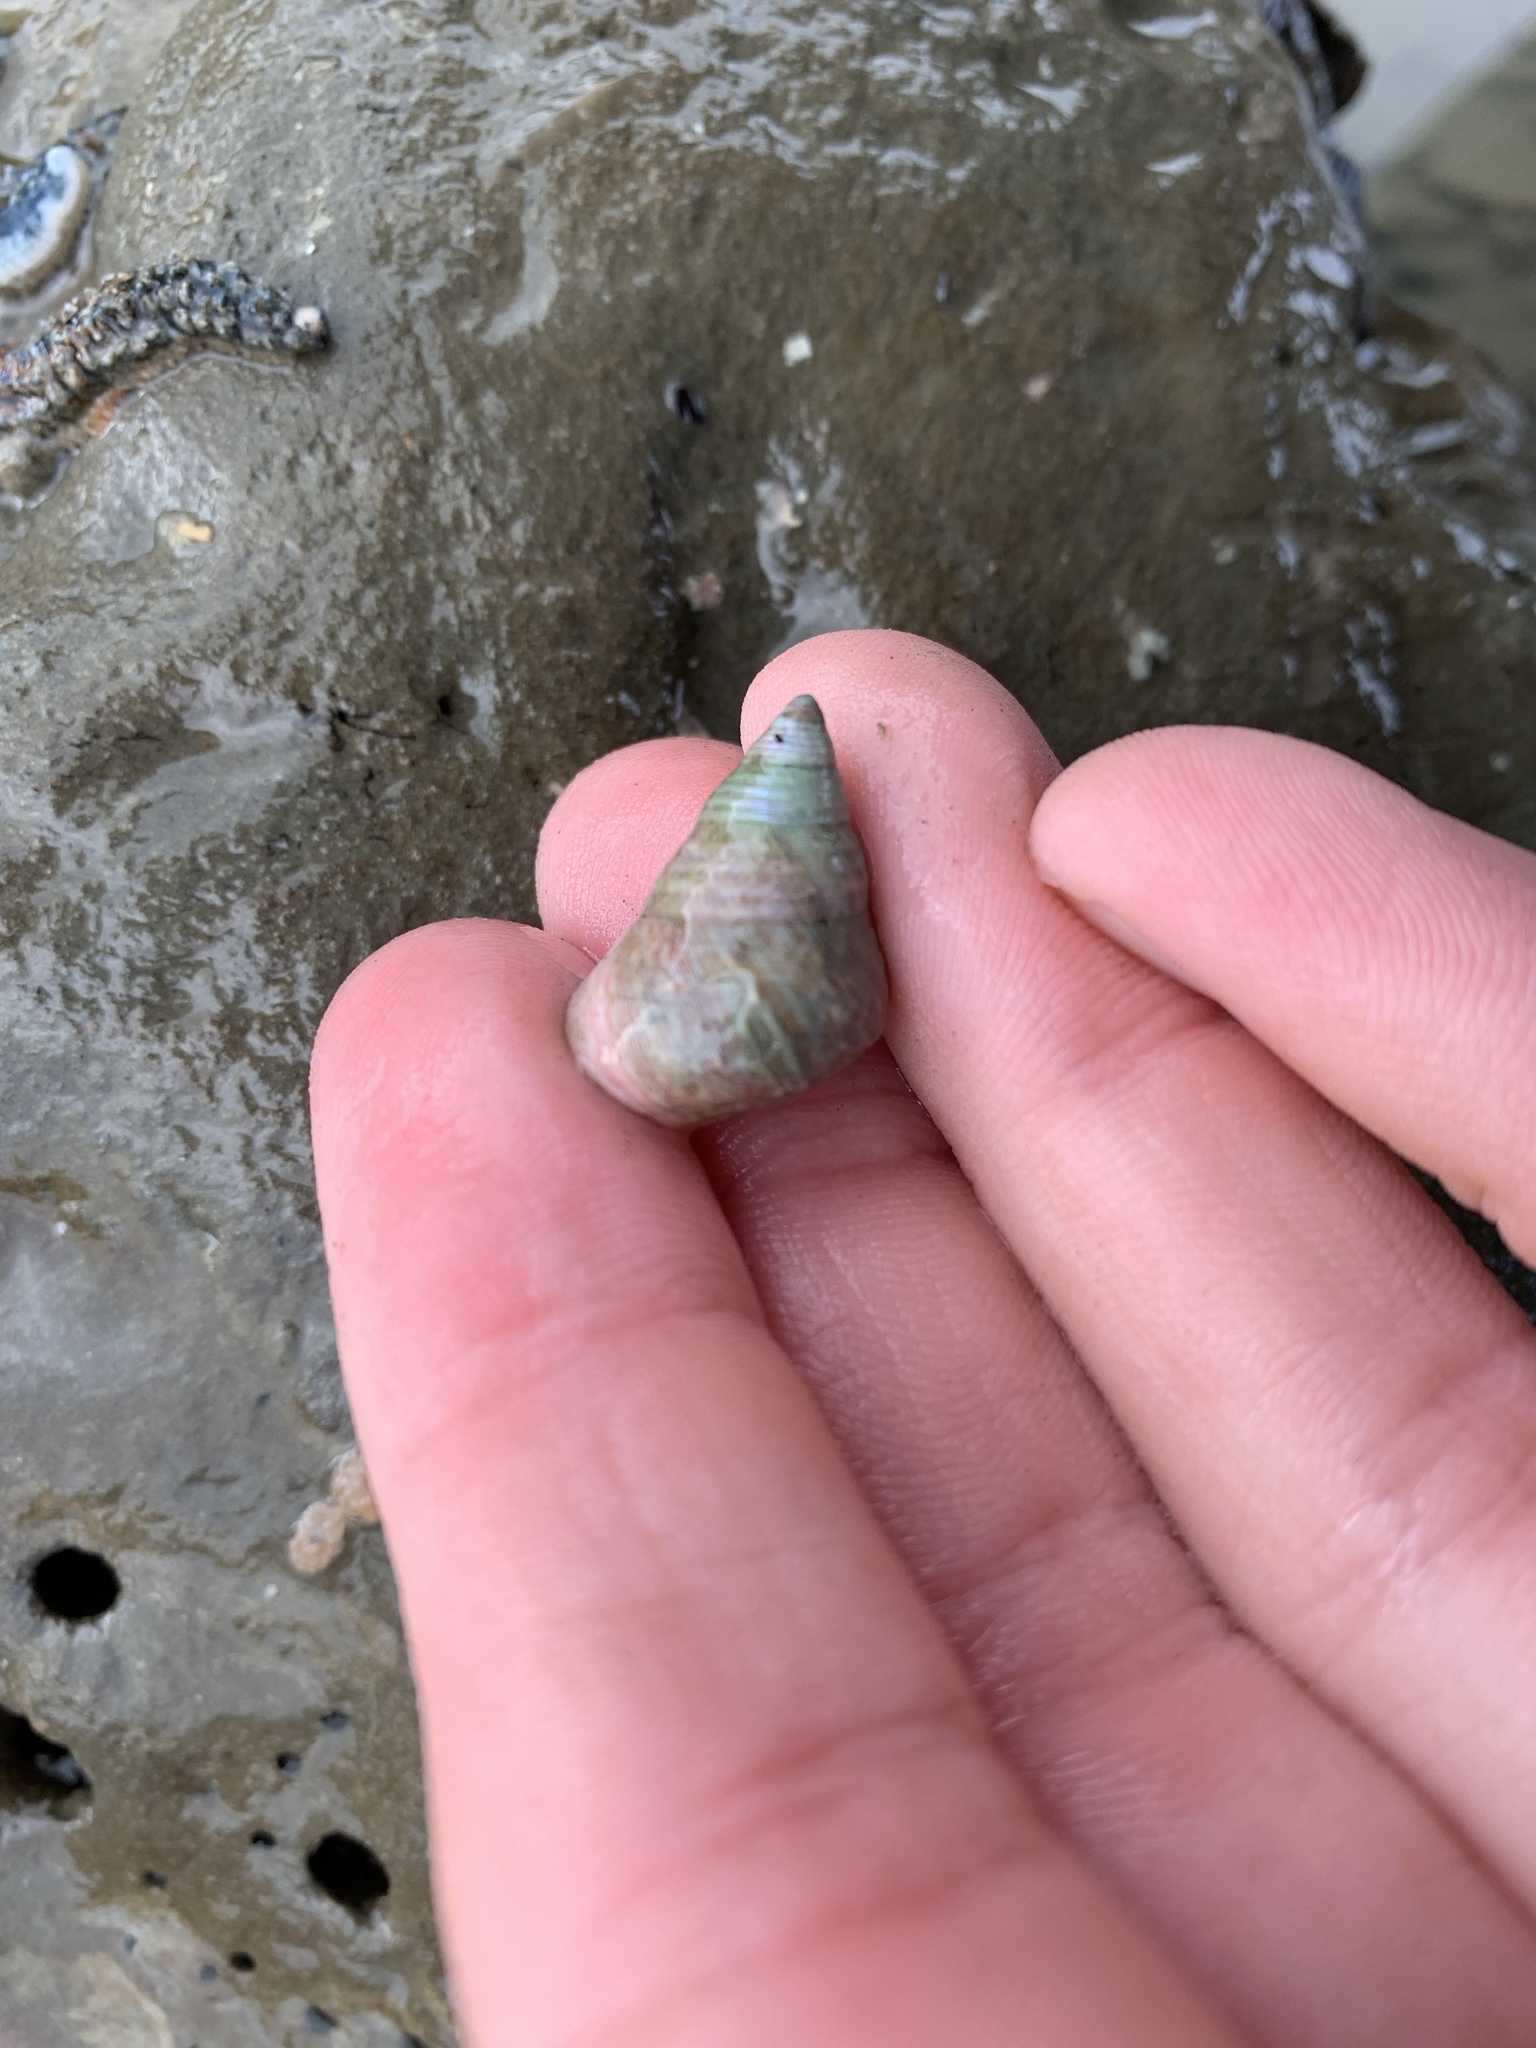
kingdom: Animalia
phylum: Mollusca
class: Gastropoda
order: Trochida
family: Trochidae
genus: Micrelenchus
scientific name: Micrelenchus purpureus
